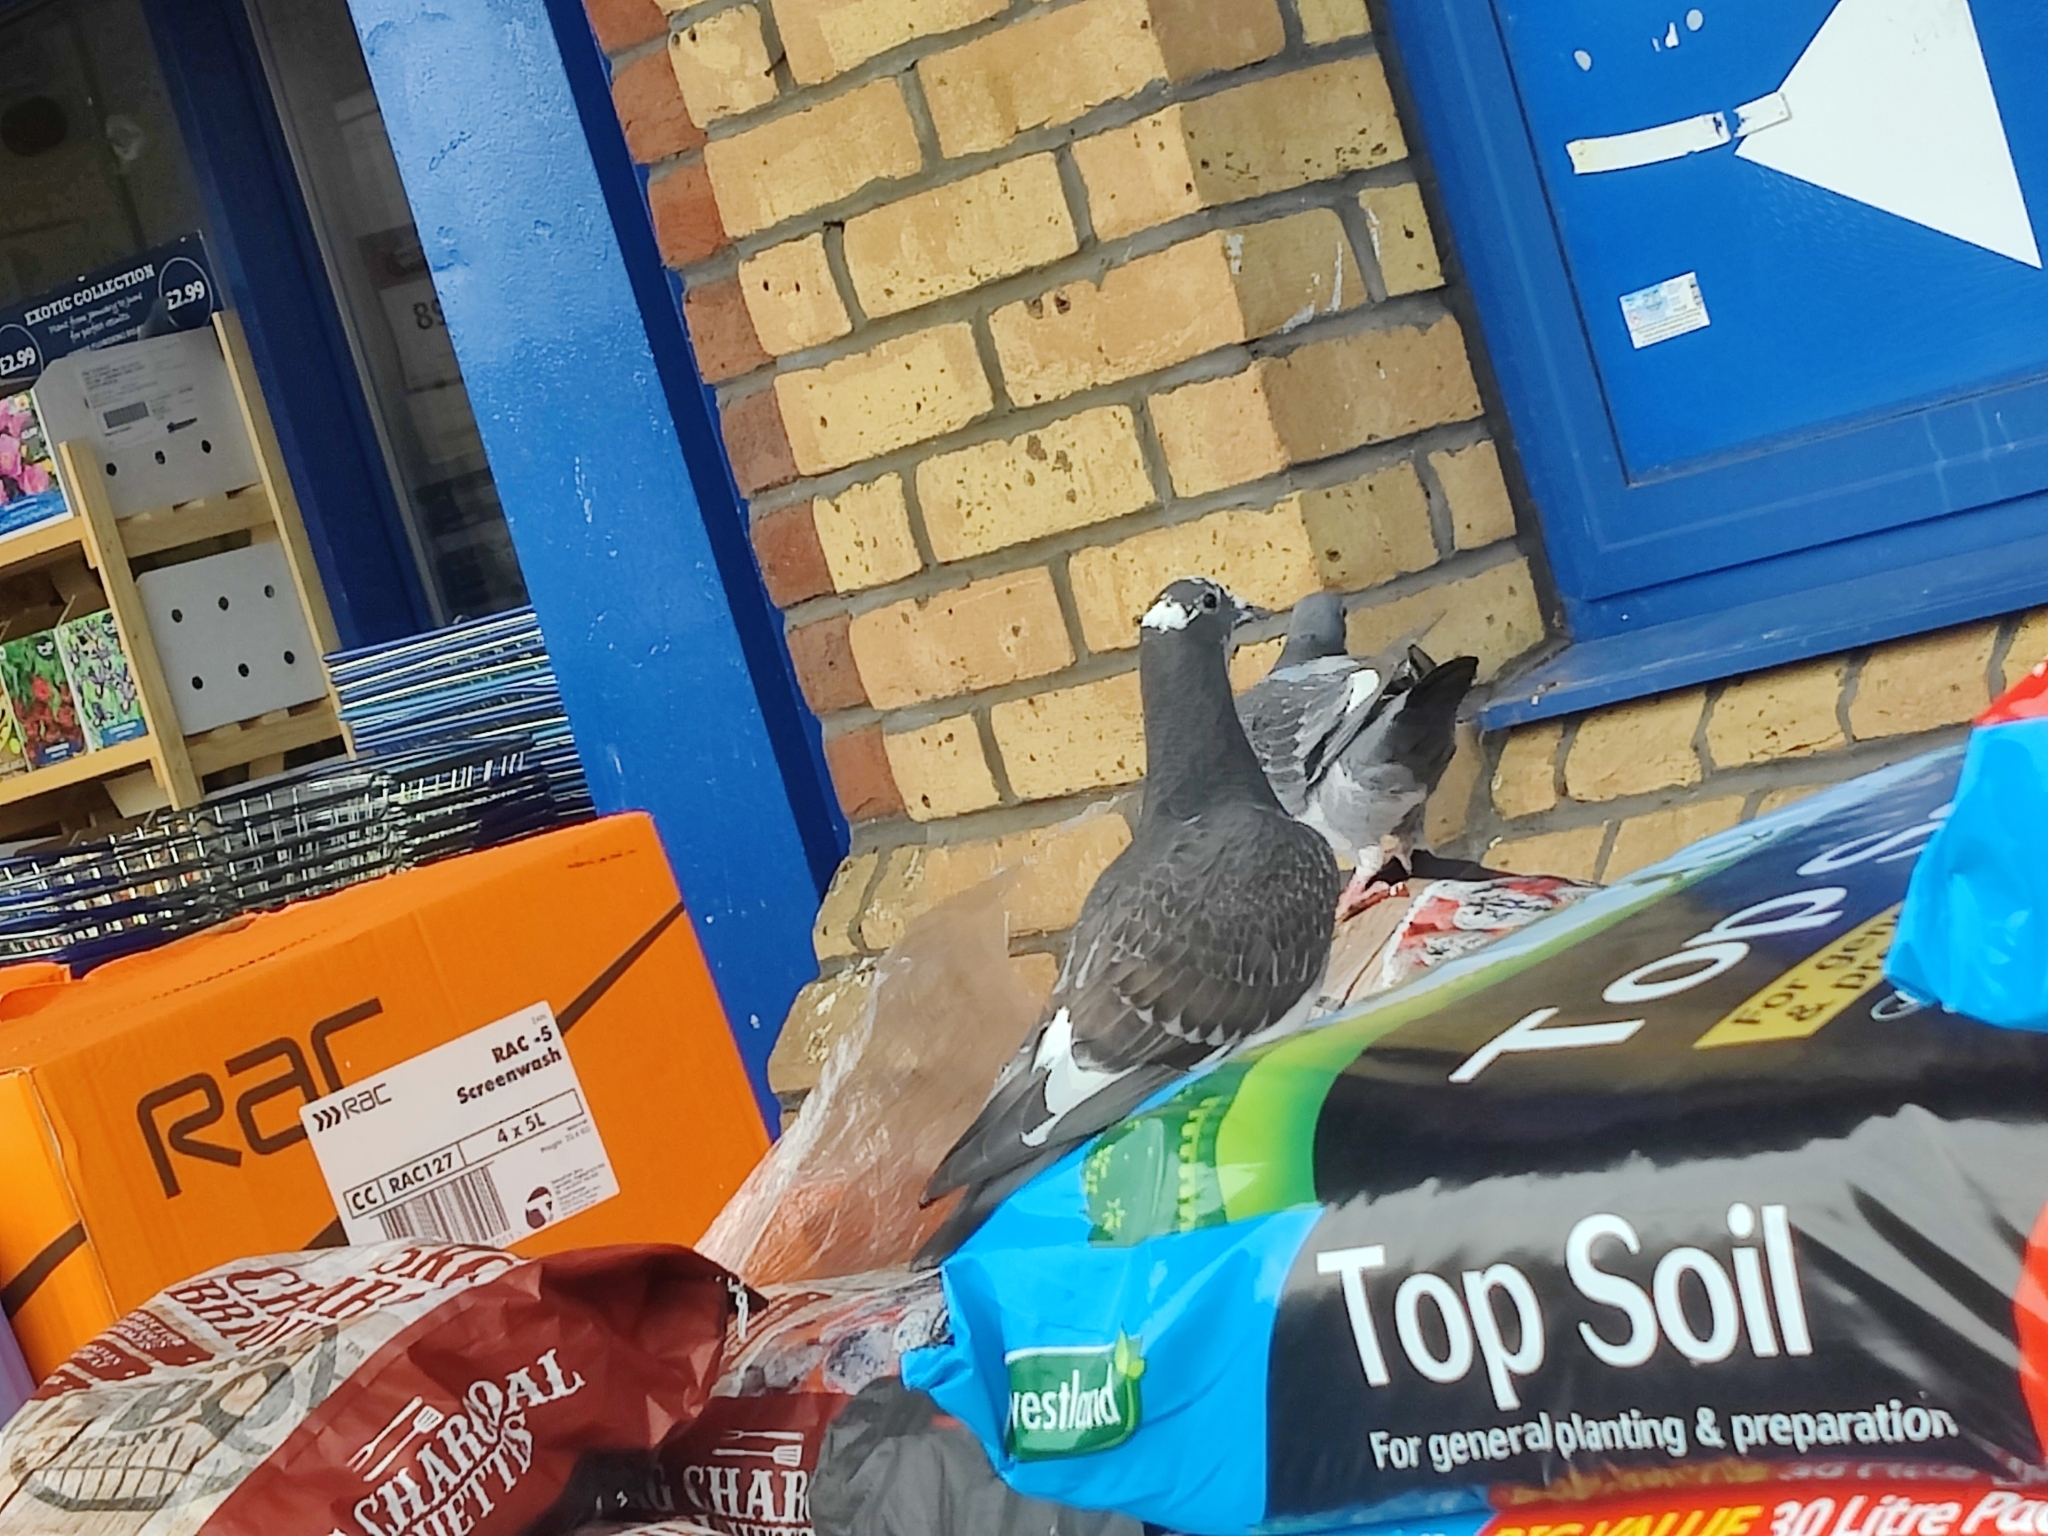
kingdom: Animalia
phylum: Chordata
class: Aves
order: Columbiformes
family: Columbidae
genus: Columba
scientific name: Columba livia
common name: Rock pigeon
